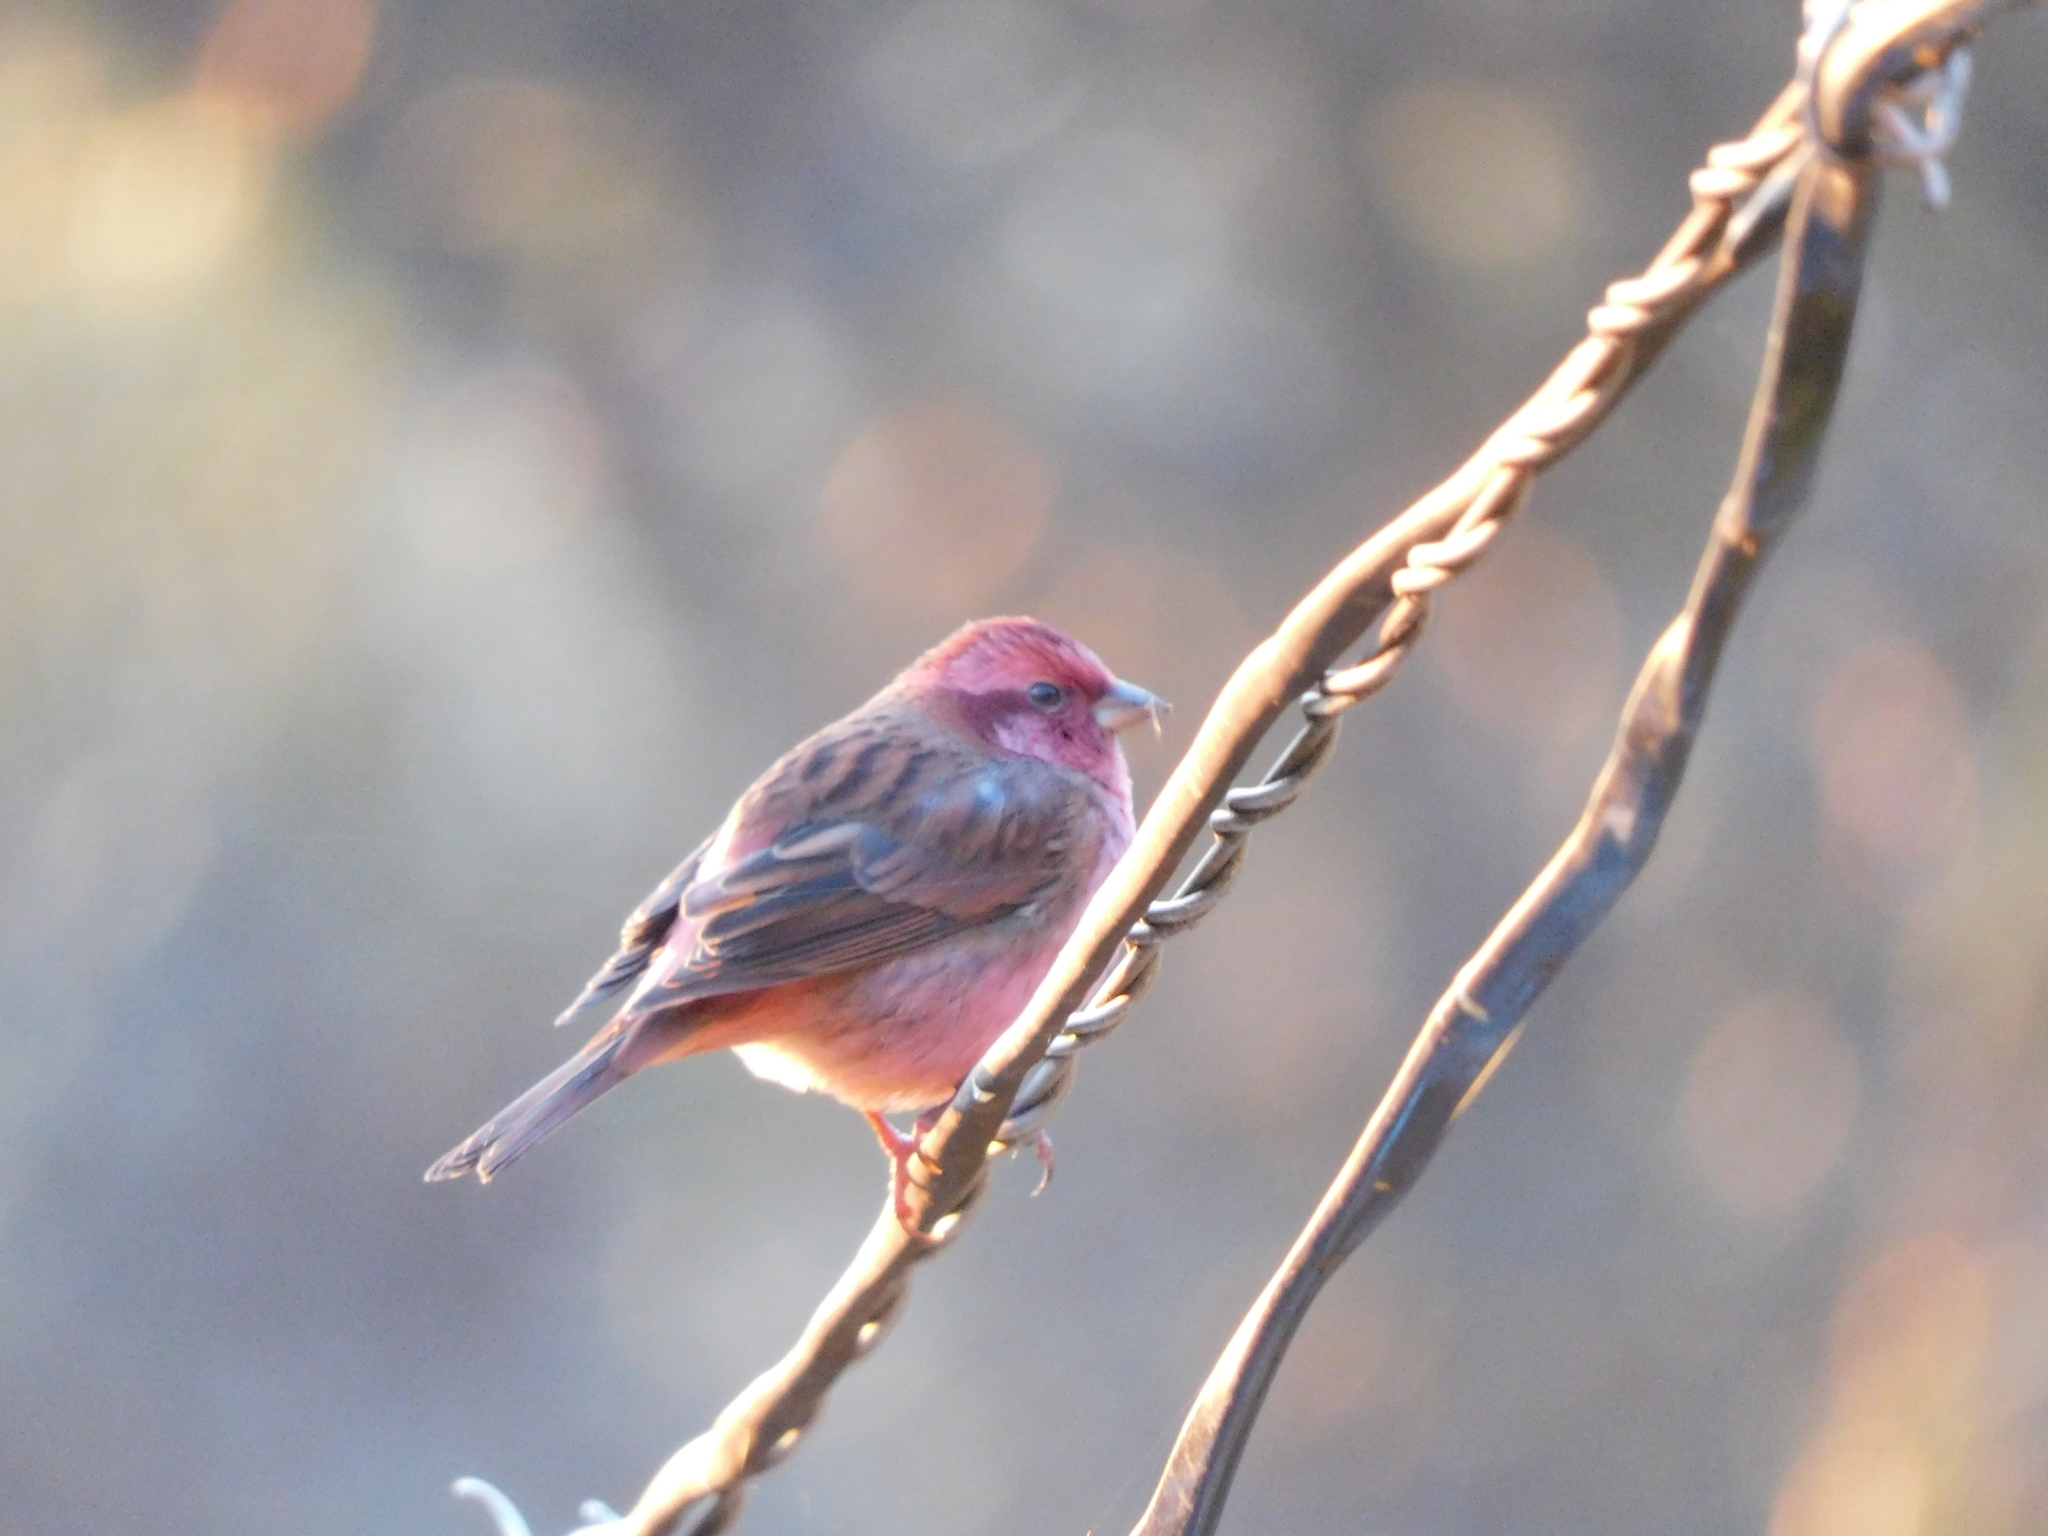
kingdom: Animalia
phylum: Chordata
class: Aves
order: Passeriformes
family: Fringillidae
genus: Carpodacus
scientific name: Carpodacus rodochroa
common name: Pink-browed rosefinch
